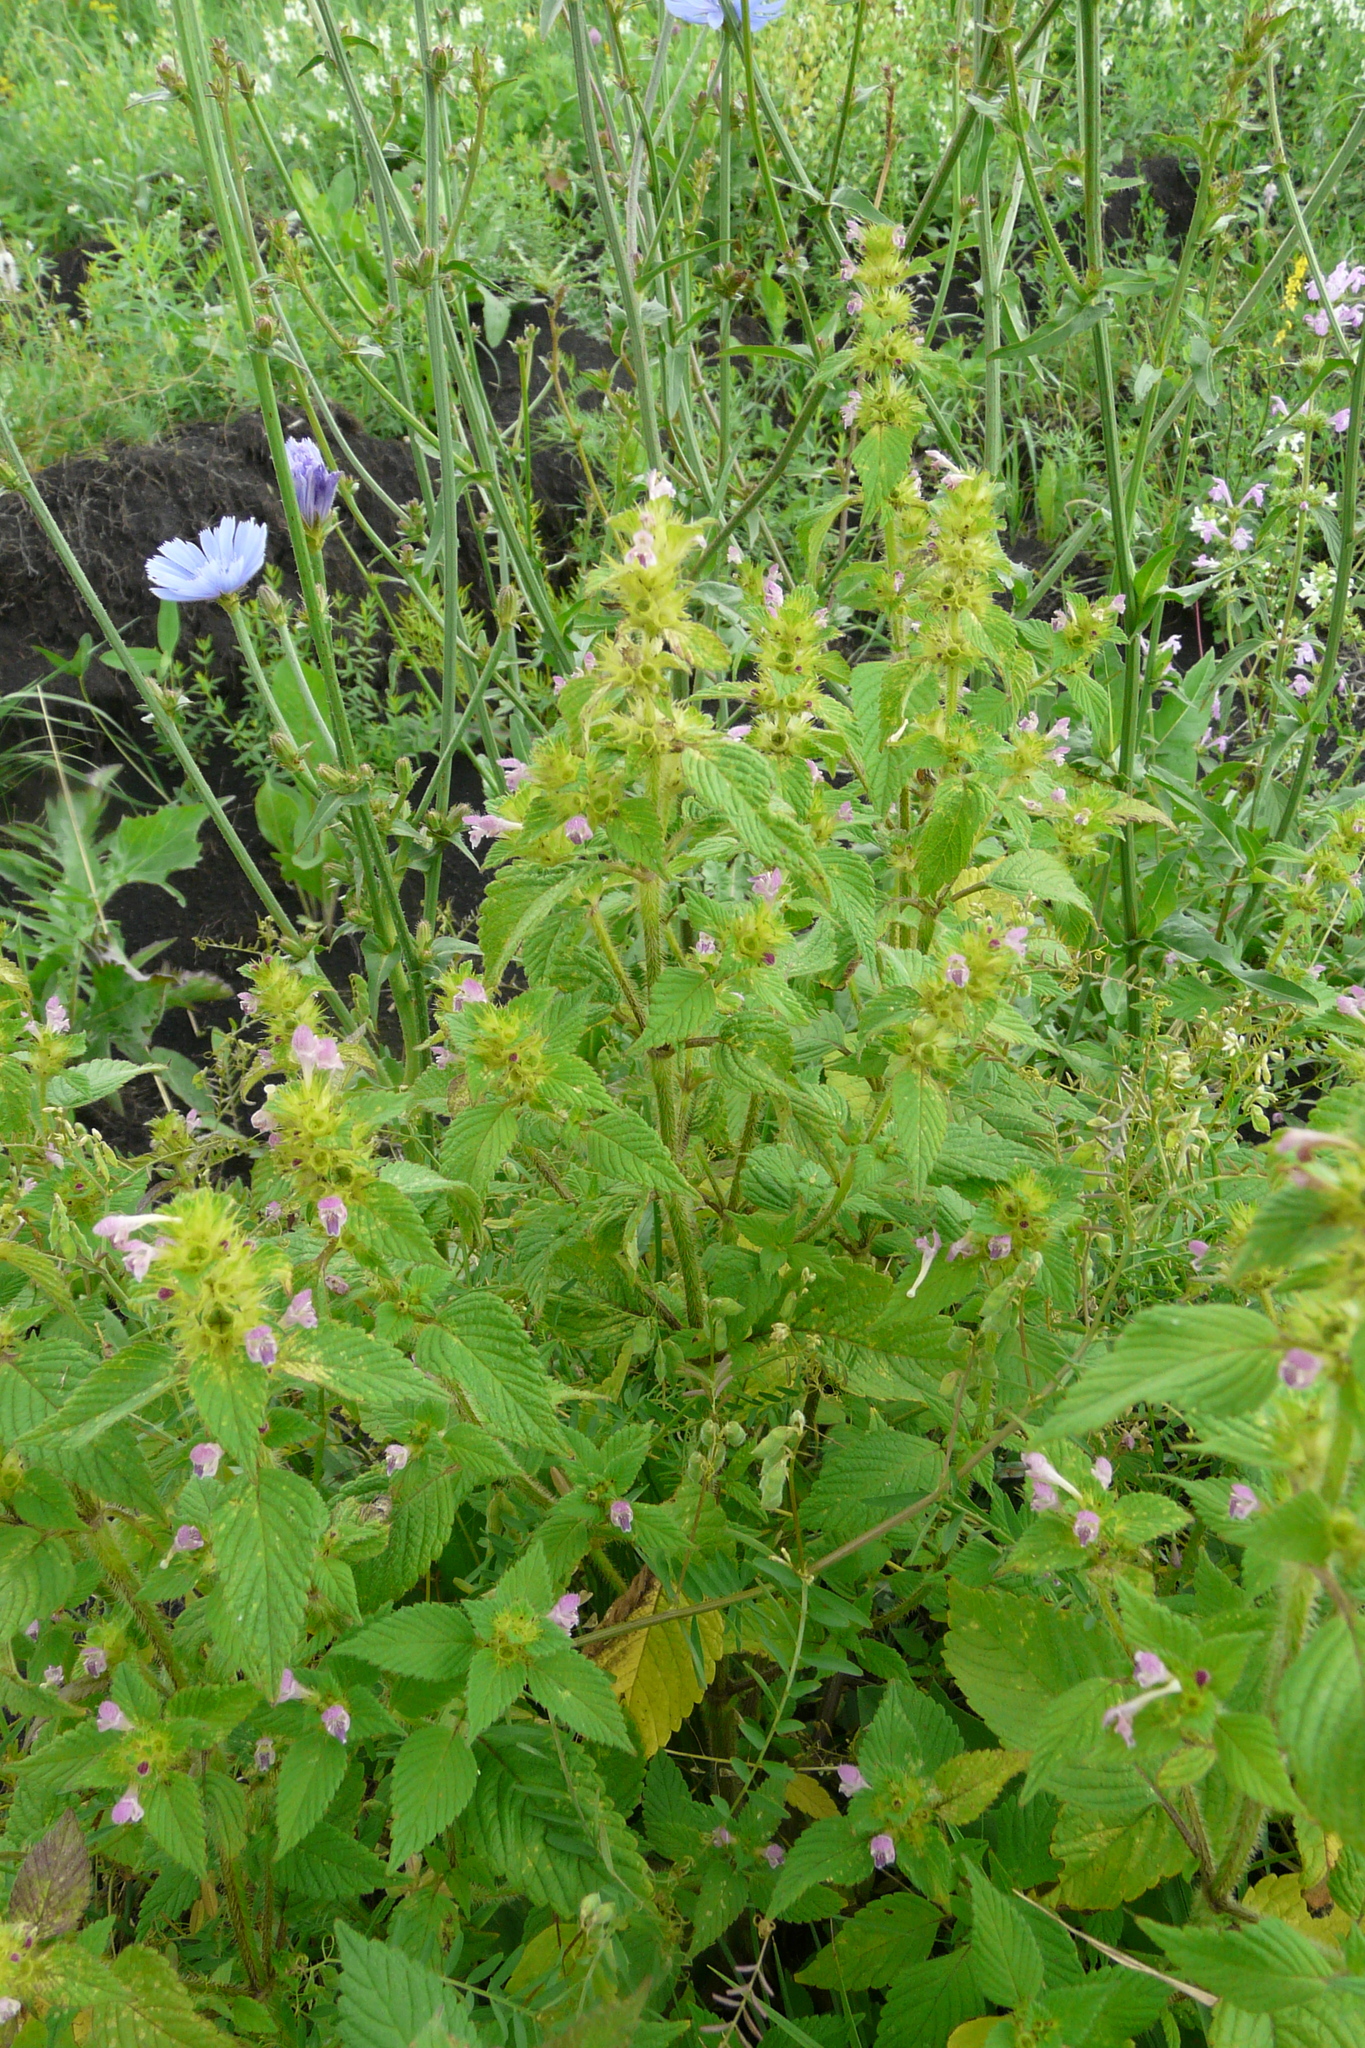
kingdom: Plantae
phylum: Tracheophyta
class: Magnoliopsida
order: Lamiales
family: Lamiaceae
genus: Galeopsis
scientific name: Galeopsis bifida
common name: Bifid hemp-nettle
